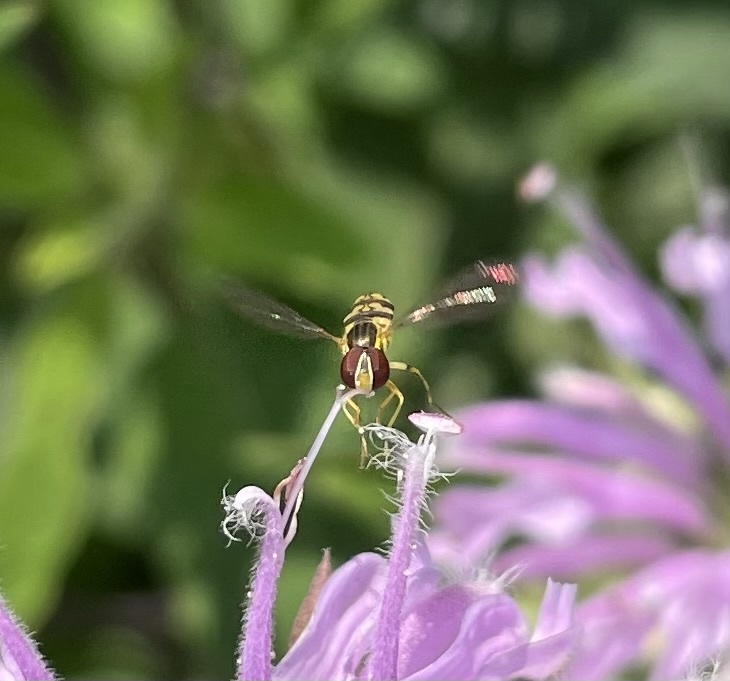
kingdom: Animalia
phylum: Arthropoda
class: Insecta
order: Diptera
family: Syrphidae
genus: Toxomerus
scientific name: Toxomerus geminatus
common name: Eastern calligrapher
